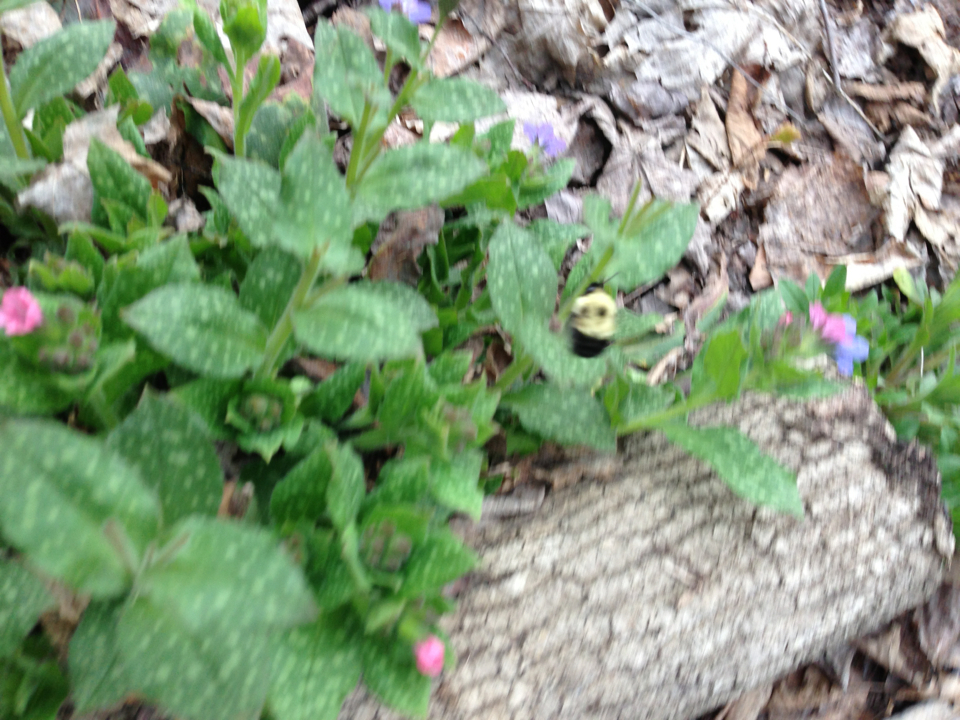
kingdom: Animalia
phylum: Arthropoda
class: Insecta
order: Hymenoptera
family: Apidae
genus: Pyrobombus
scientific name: Pyrobombus
